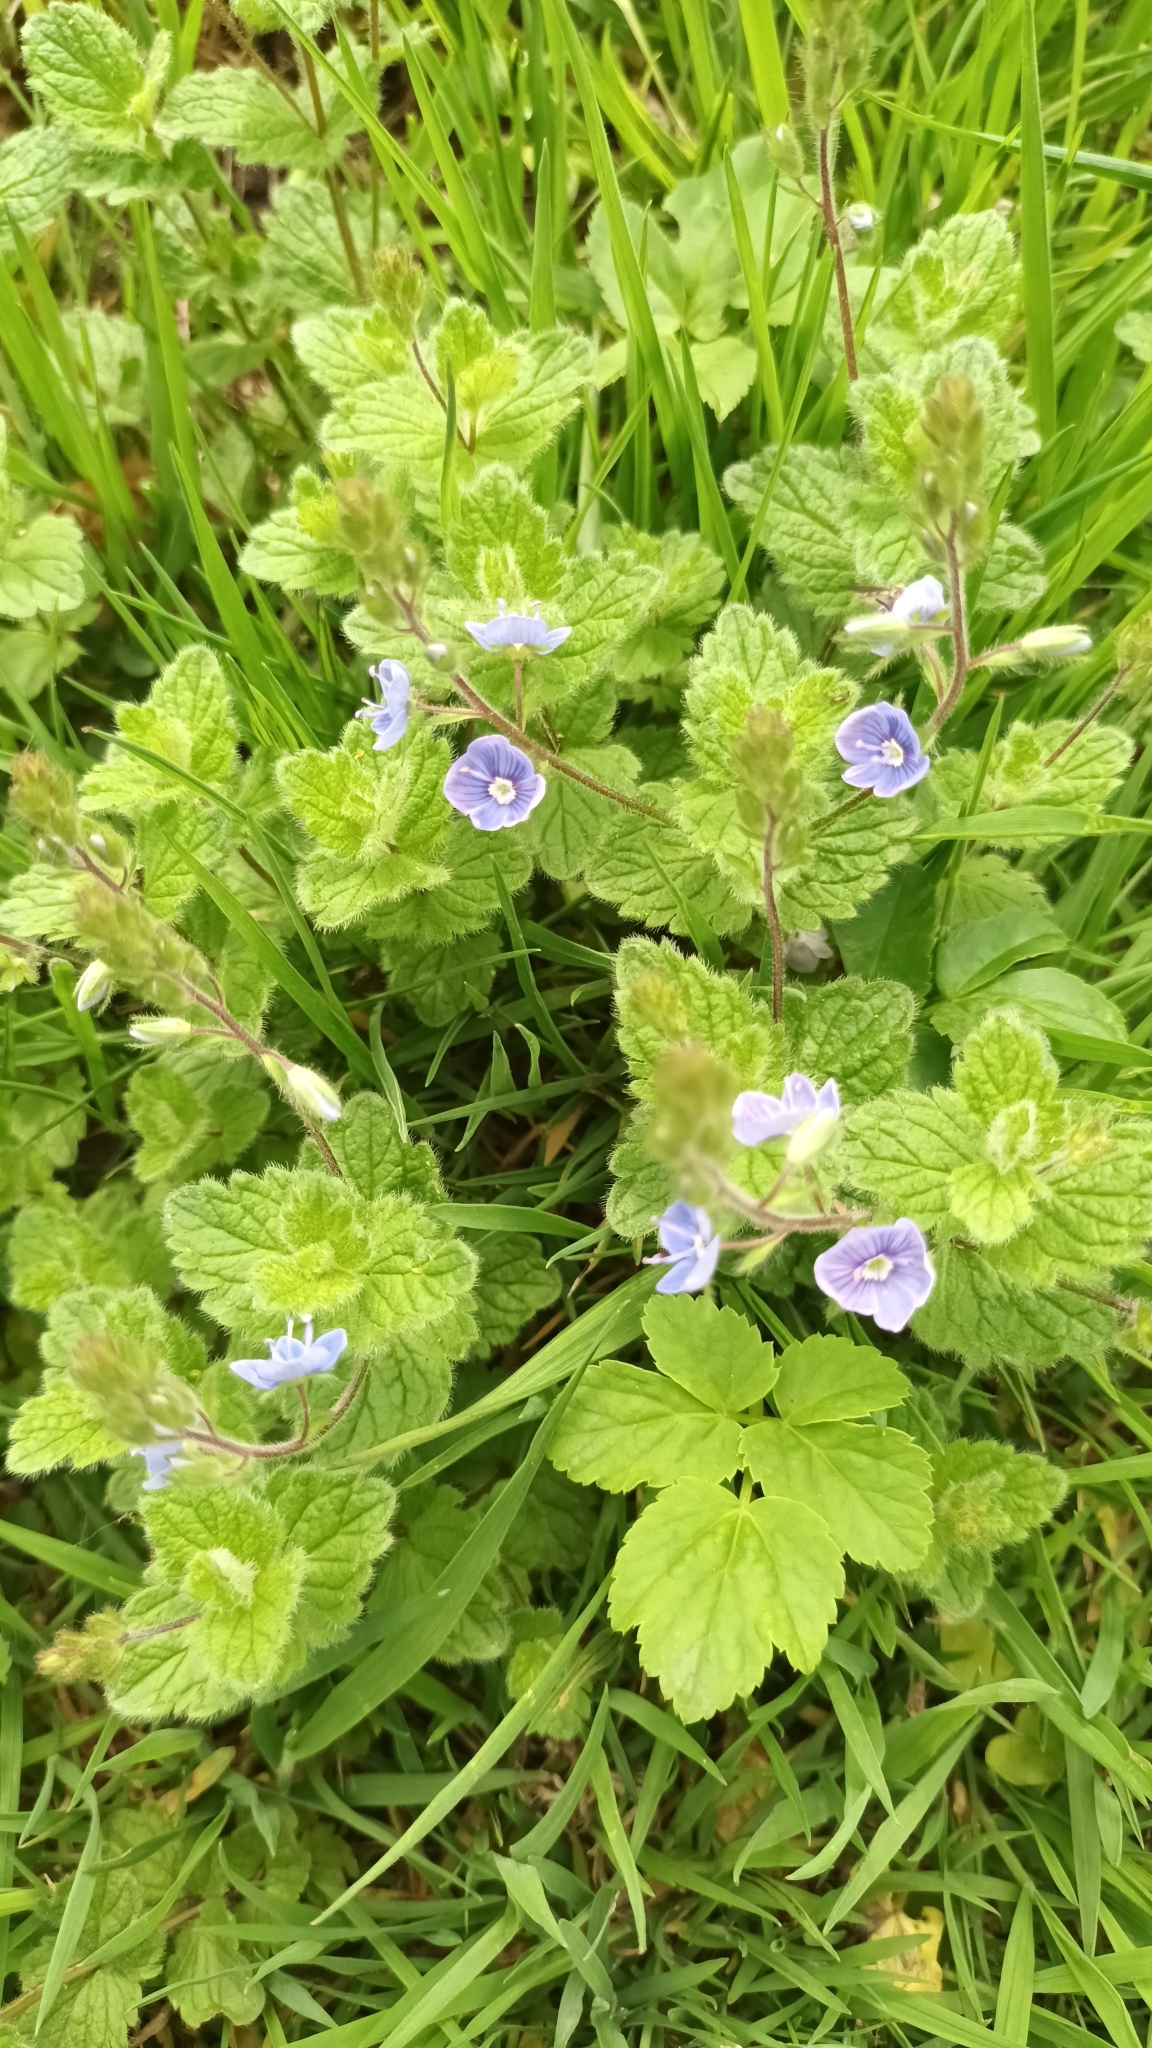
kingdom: Plantae
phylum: Tracheophyta
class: Magnoliopsida
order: Lamiales
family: Plantaginaceae
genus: Veronica
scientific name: Veronica chamaedrys
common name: Germander speedwell
